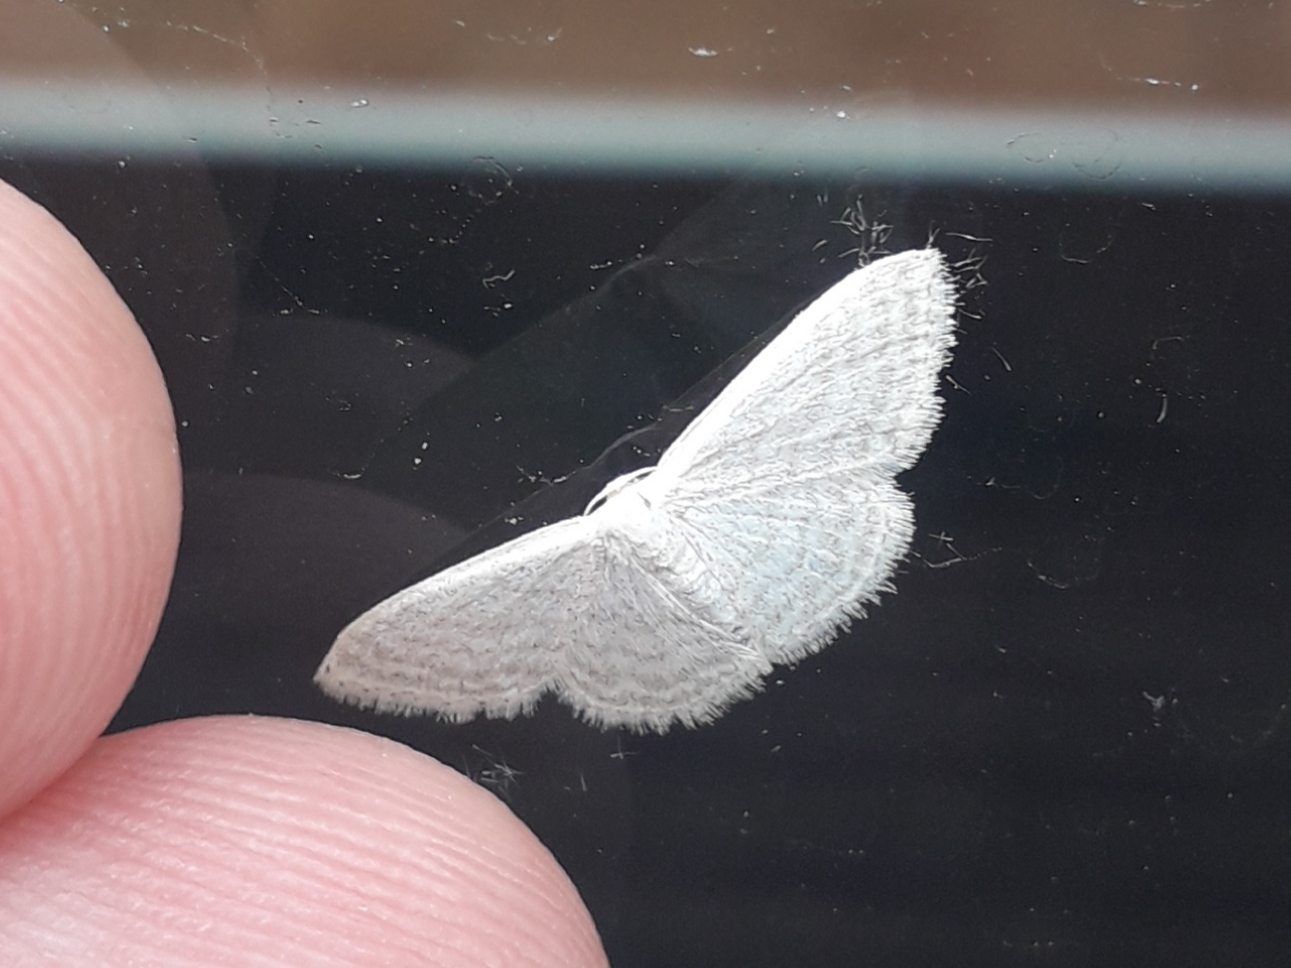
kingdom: Animalia
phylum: Arthropoda
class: Insecta
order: Lepidoptera
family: Geometridae
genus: Idaea
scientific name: Idaea subsericeata
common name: Satin wave
